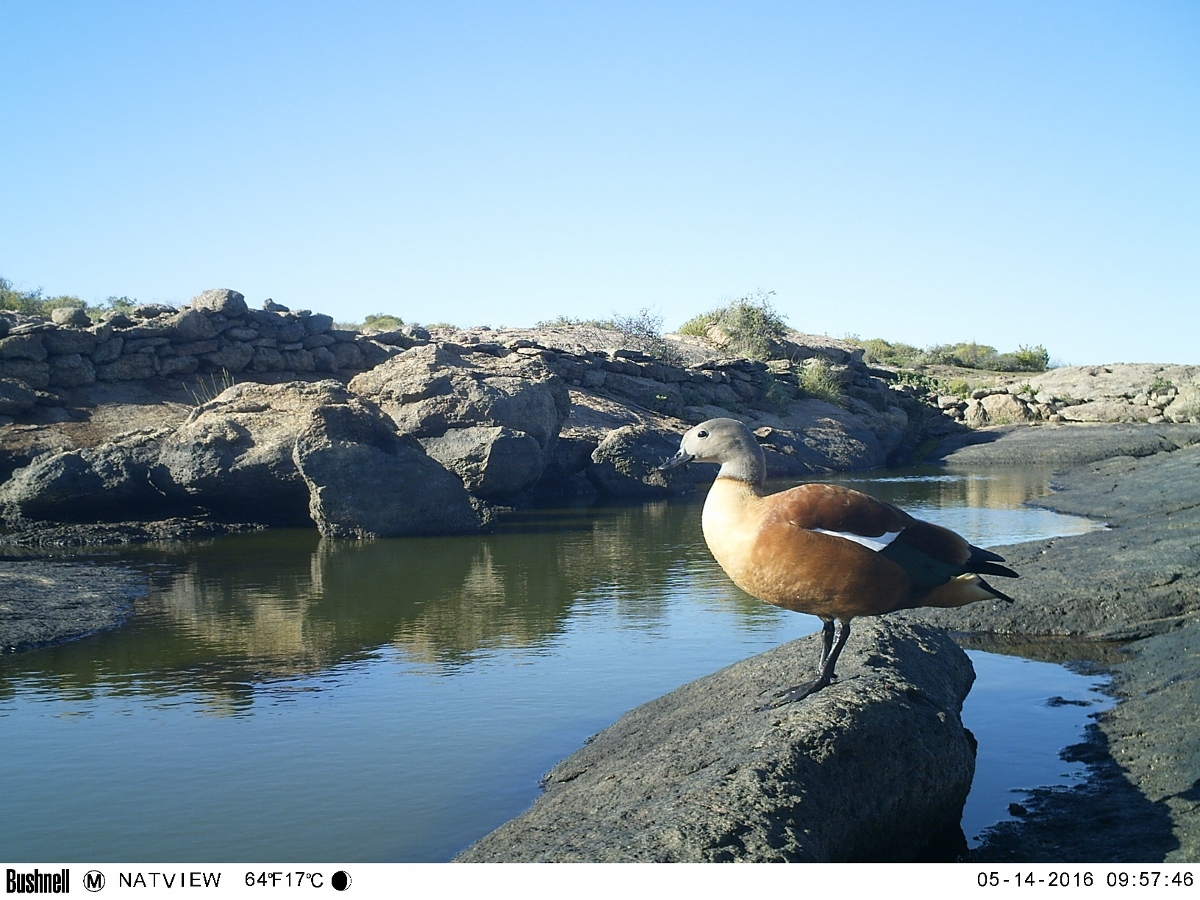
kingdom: Animalia
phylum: Chordata
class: Aves
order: Anseriformes
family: Anatidae
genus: Tadorna
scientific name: Tadorna cana
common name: South african shelduck
